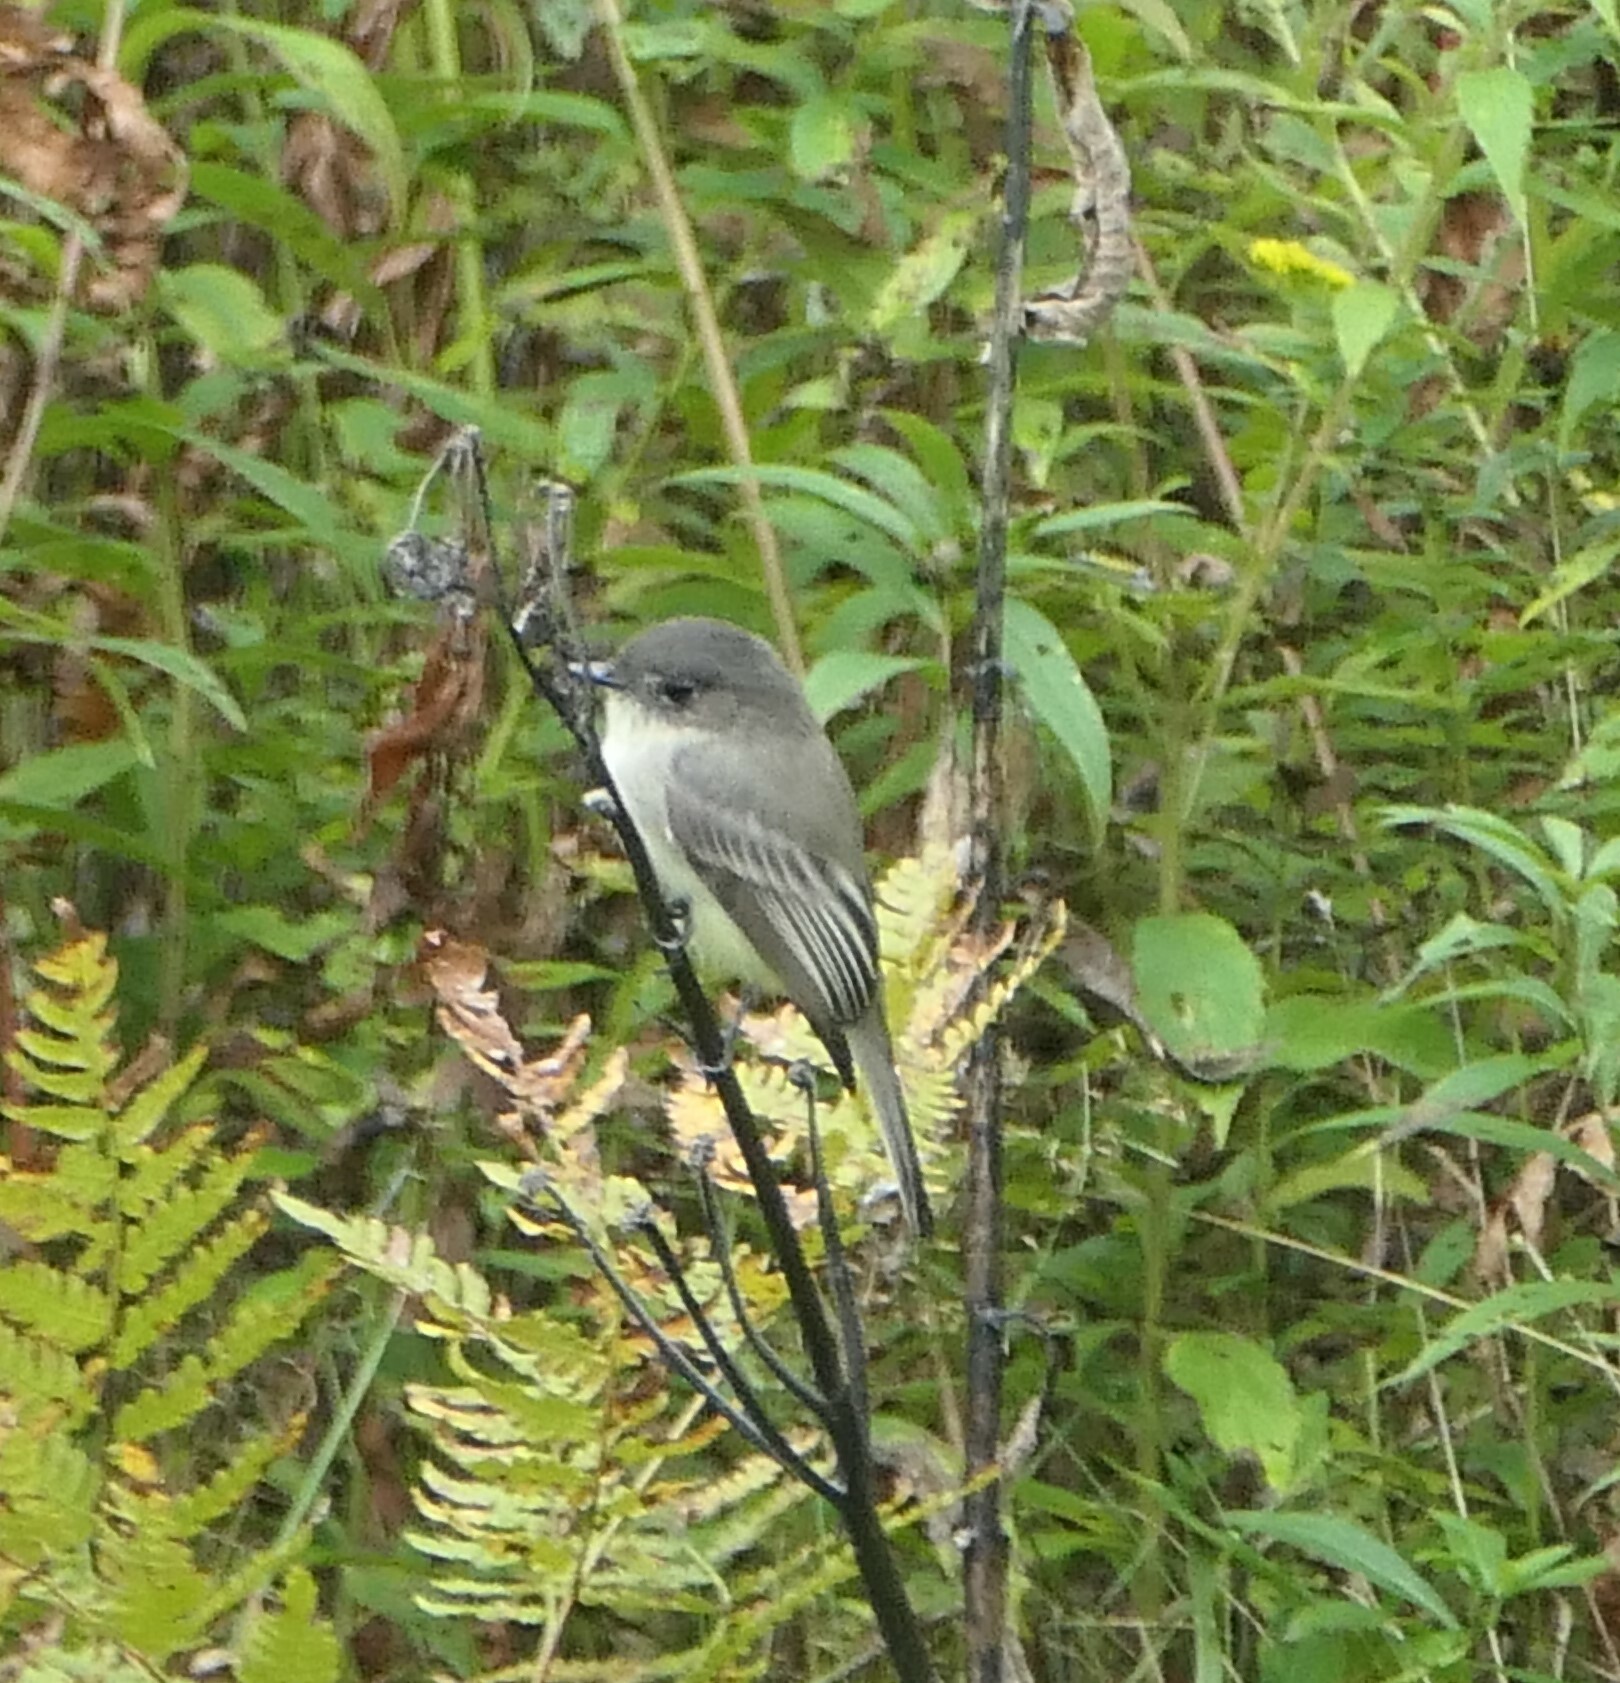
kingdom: Animalia
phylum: Chordata
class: Aves
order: Passeriformes
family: Tyrannidae
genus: Sayornis
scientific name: Sayornis phoebe
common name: Eastern phoebe
